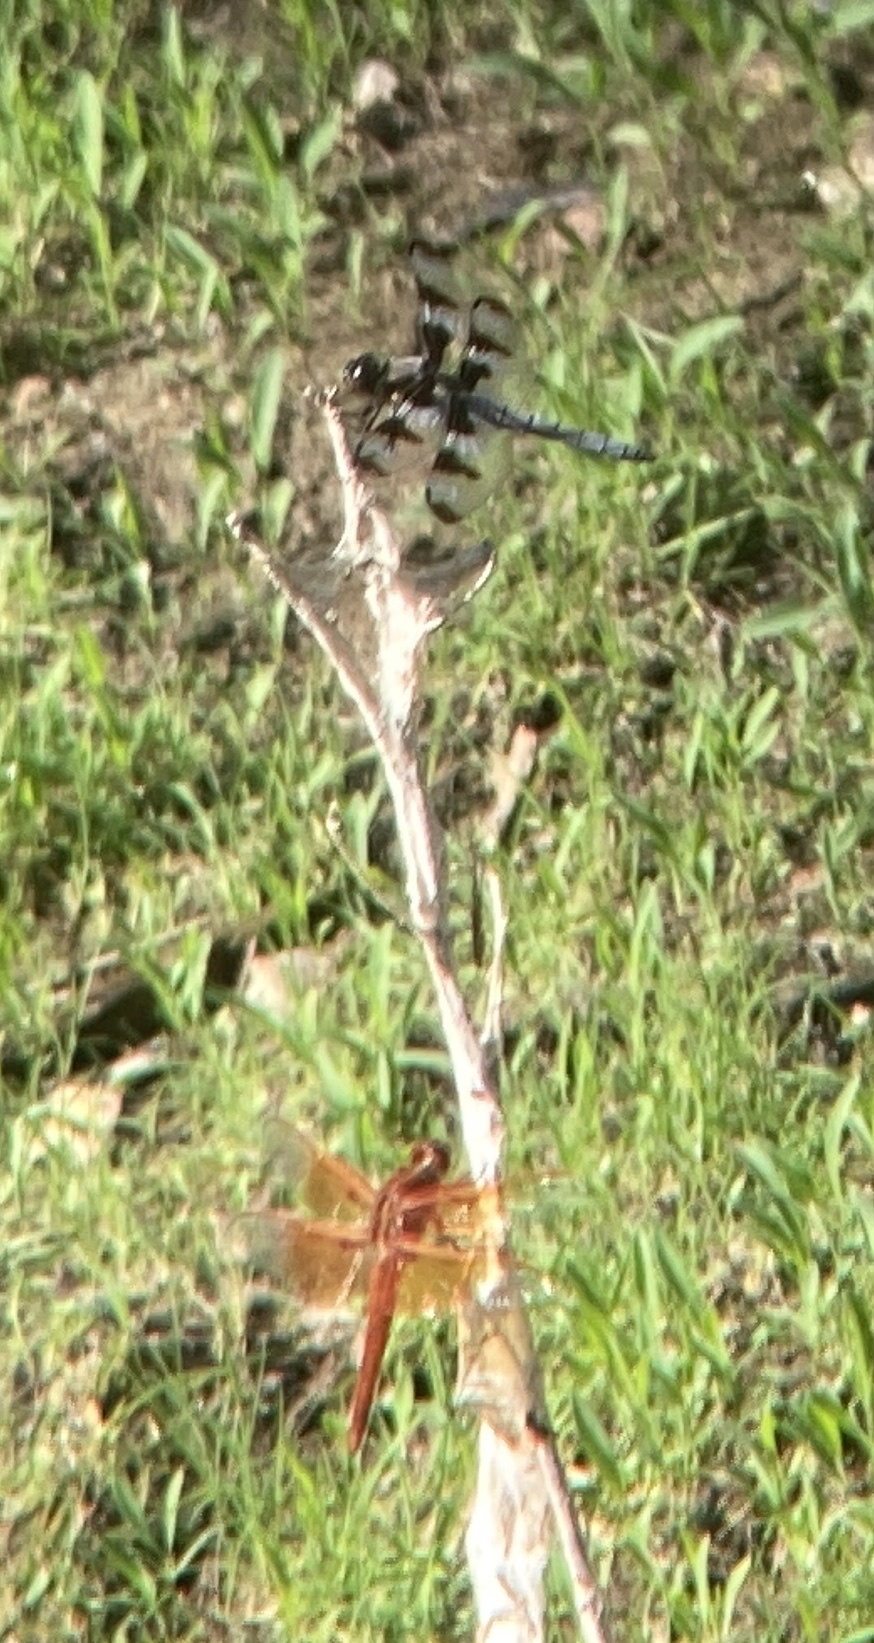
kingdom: Animalia
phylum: Arthropoda
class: Insecta
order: Odonata
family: Libellulidae
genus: Libellula
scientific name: Libellula pulchella
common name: Twelve-spotted skimmer
